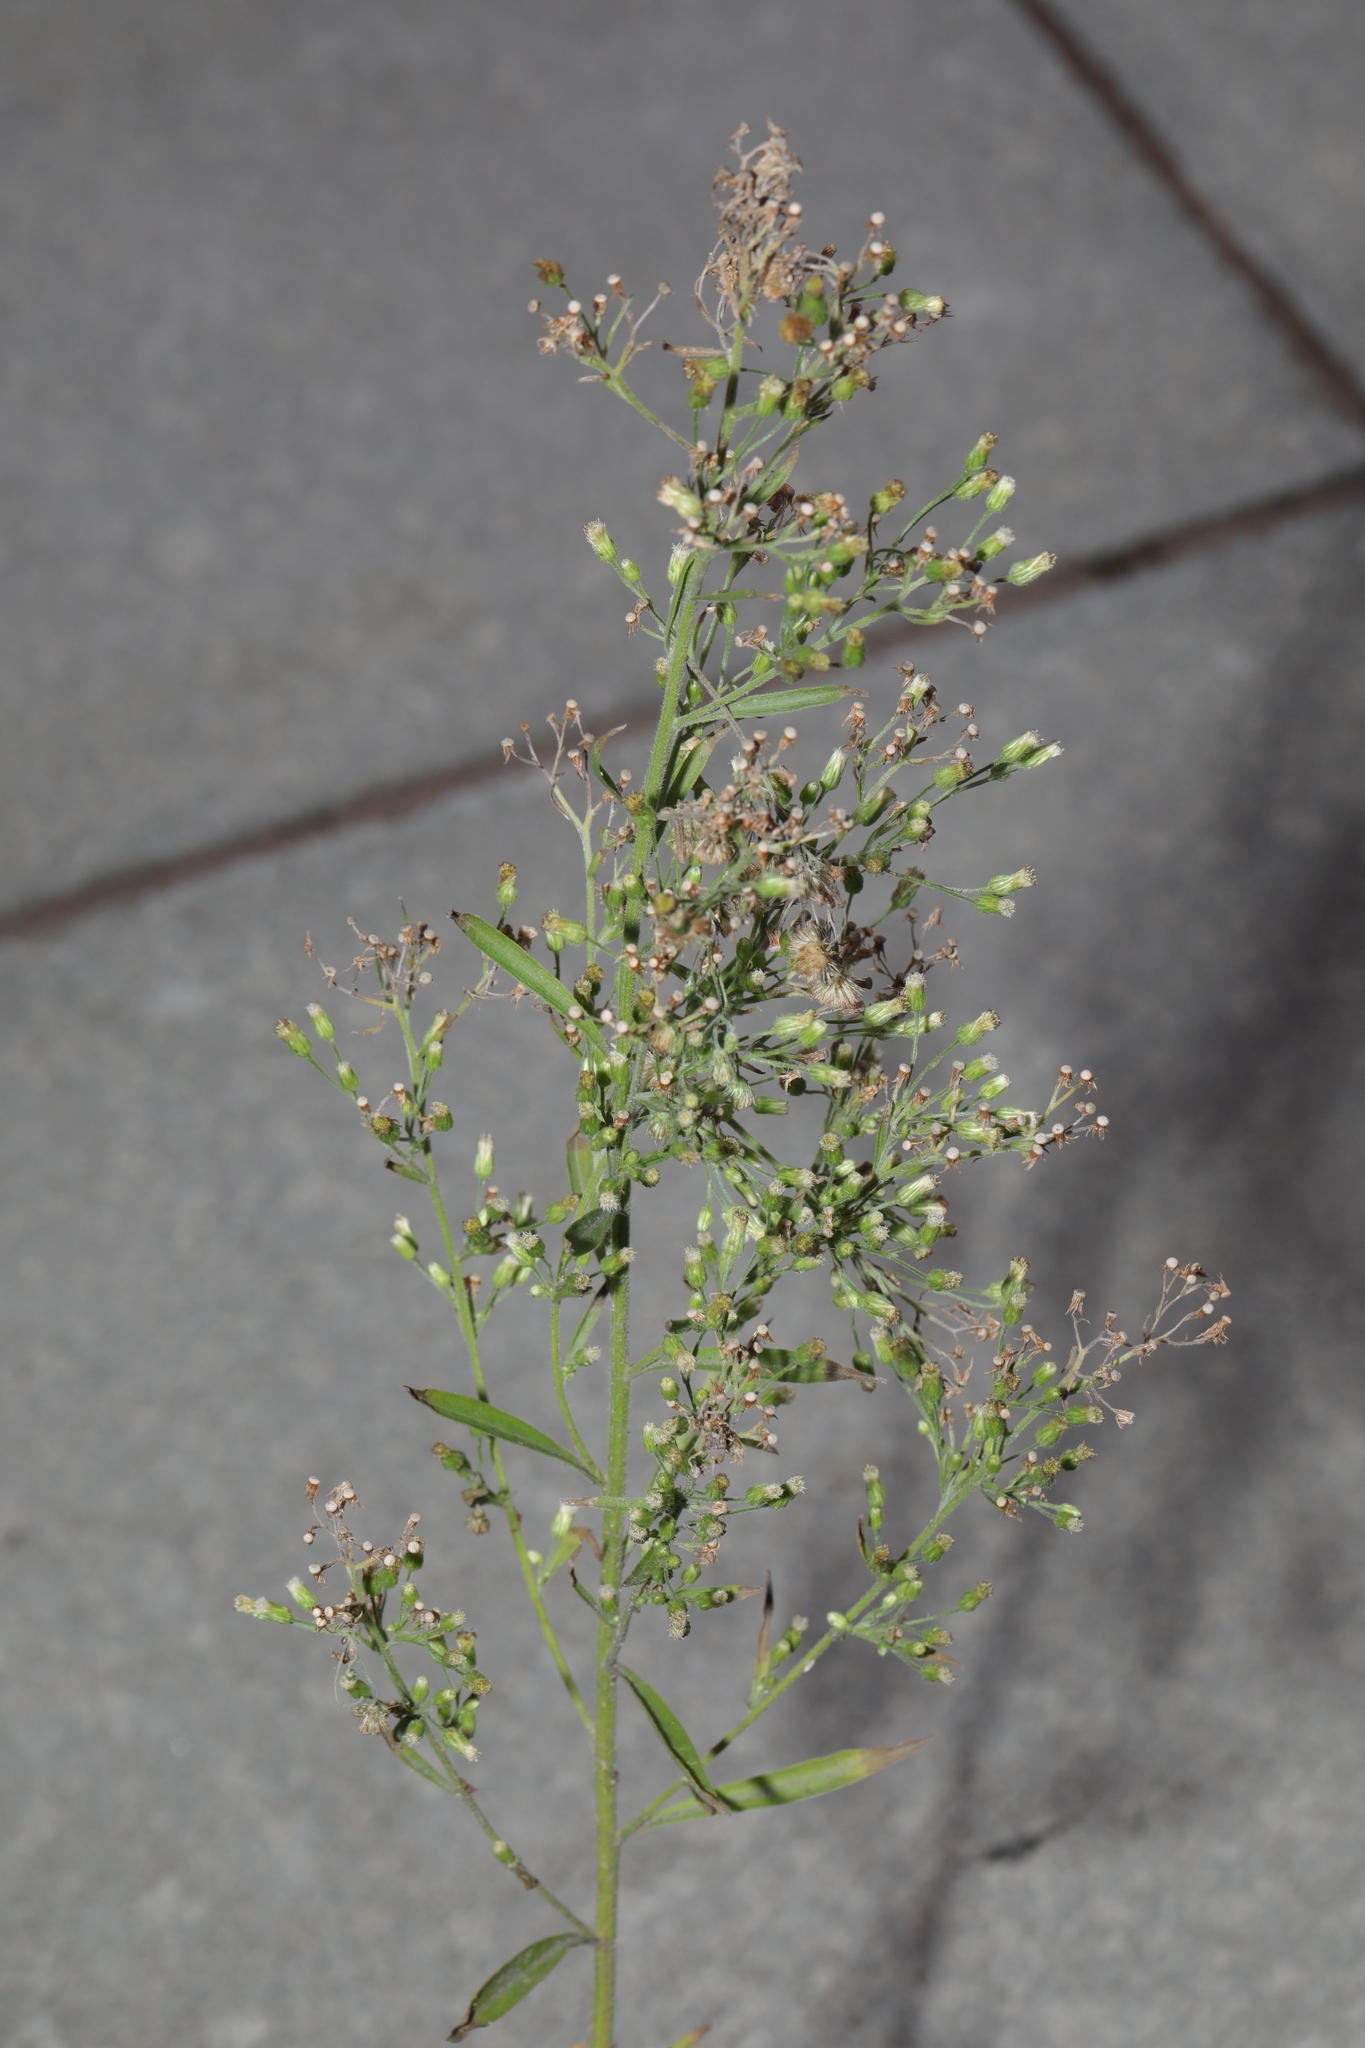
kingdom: Plantae
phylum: Tracheophyta
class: Magnoliopsida
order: Asterales
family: Asteraceae
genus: Erigeron
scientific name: Erigeron sumatrensis
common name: Daisy
